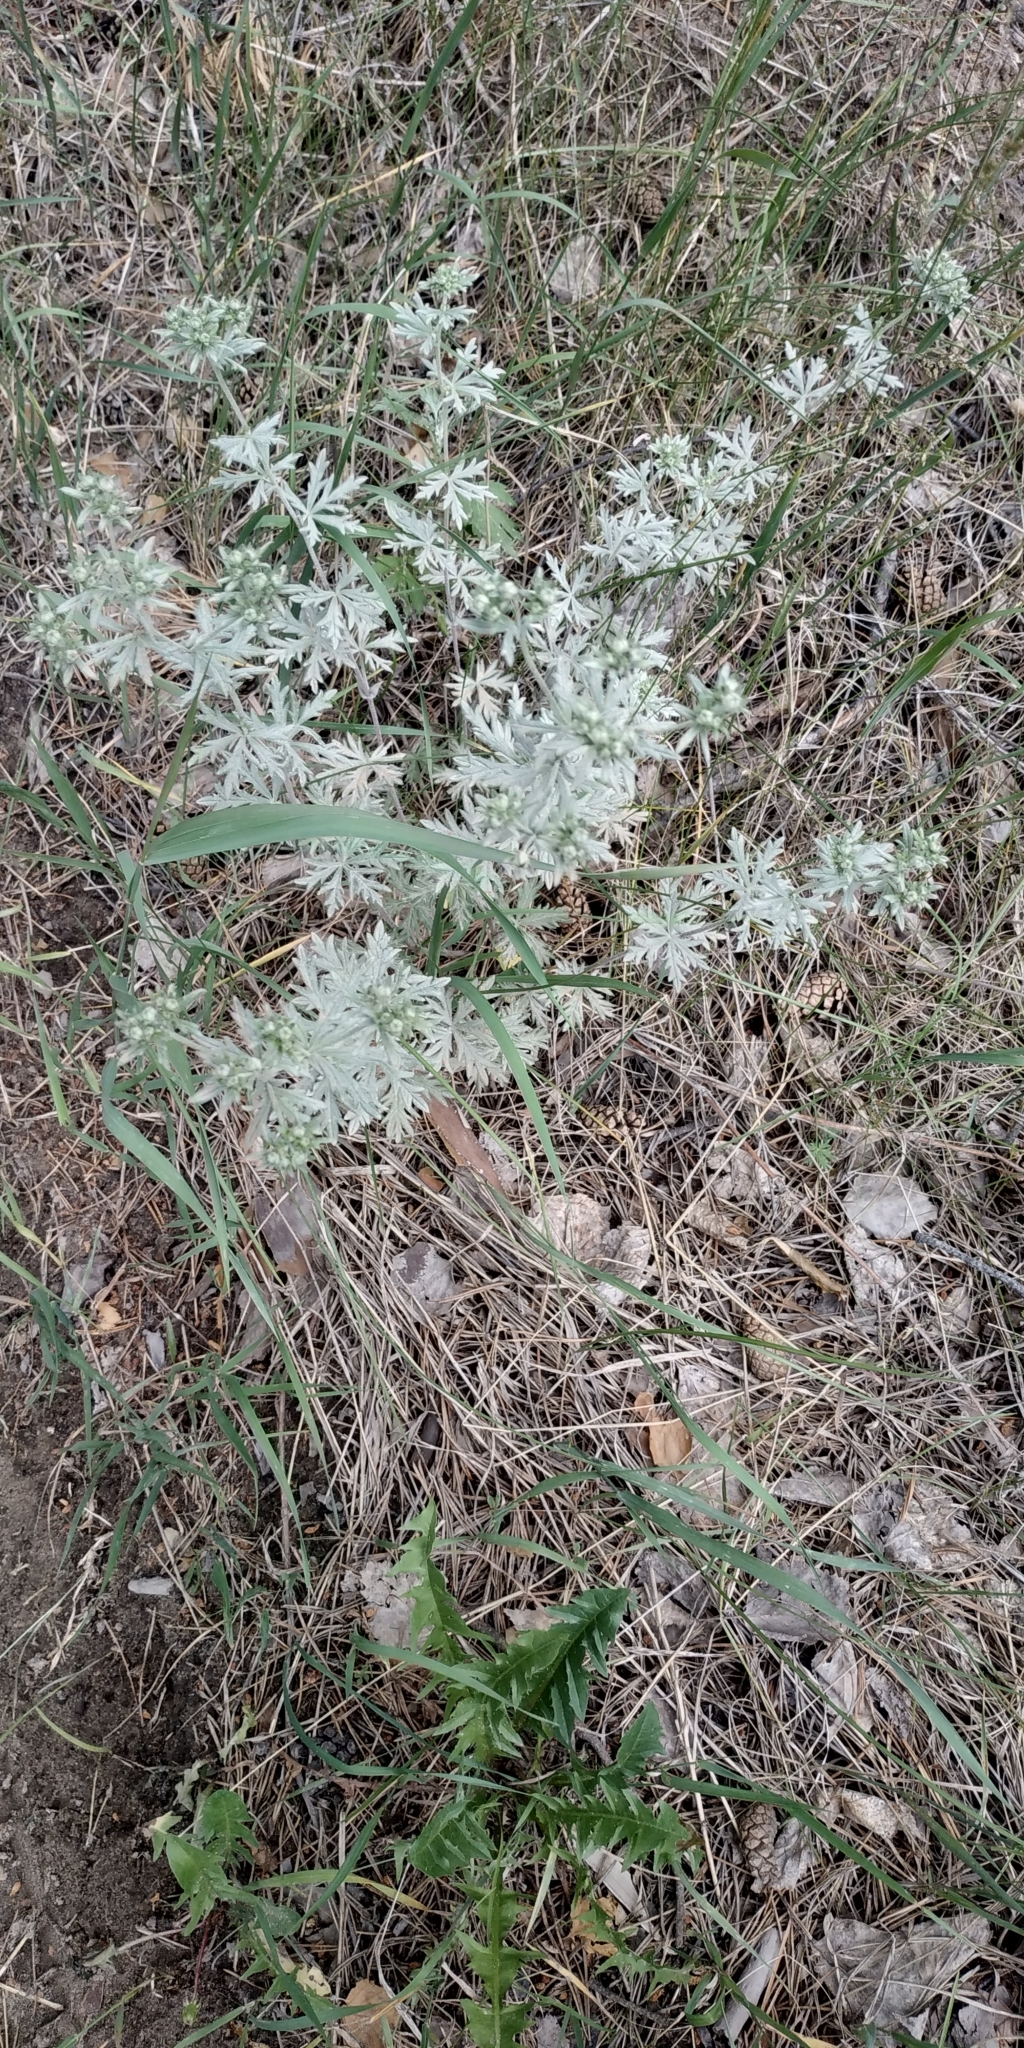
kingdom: Plantae
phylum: Tracheophyta
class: Magnoliopsida
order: Rosales
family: Rosaceae
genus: Potentilla
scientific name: Potentilla argentea
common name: Hoary cinquefoil
